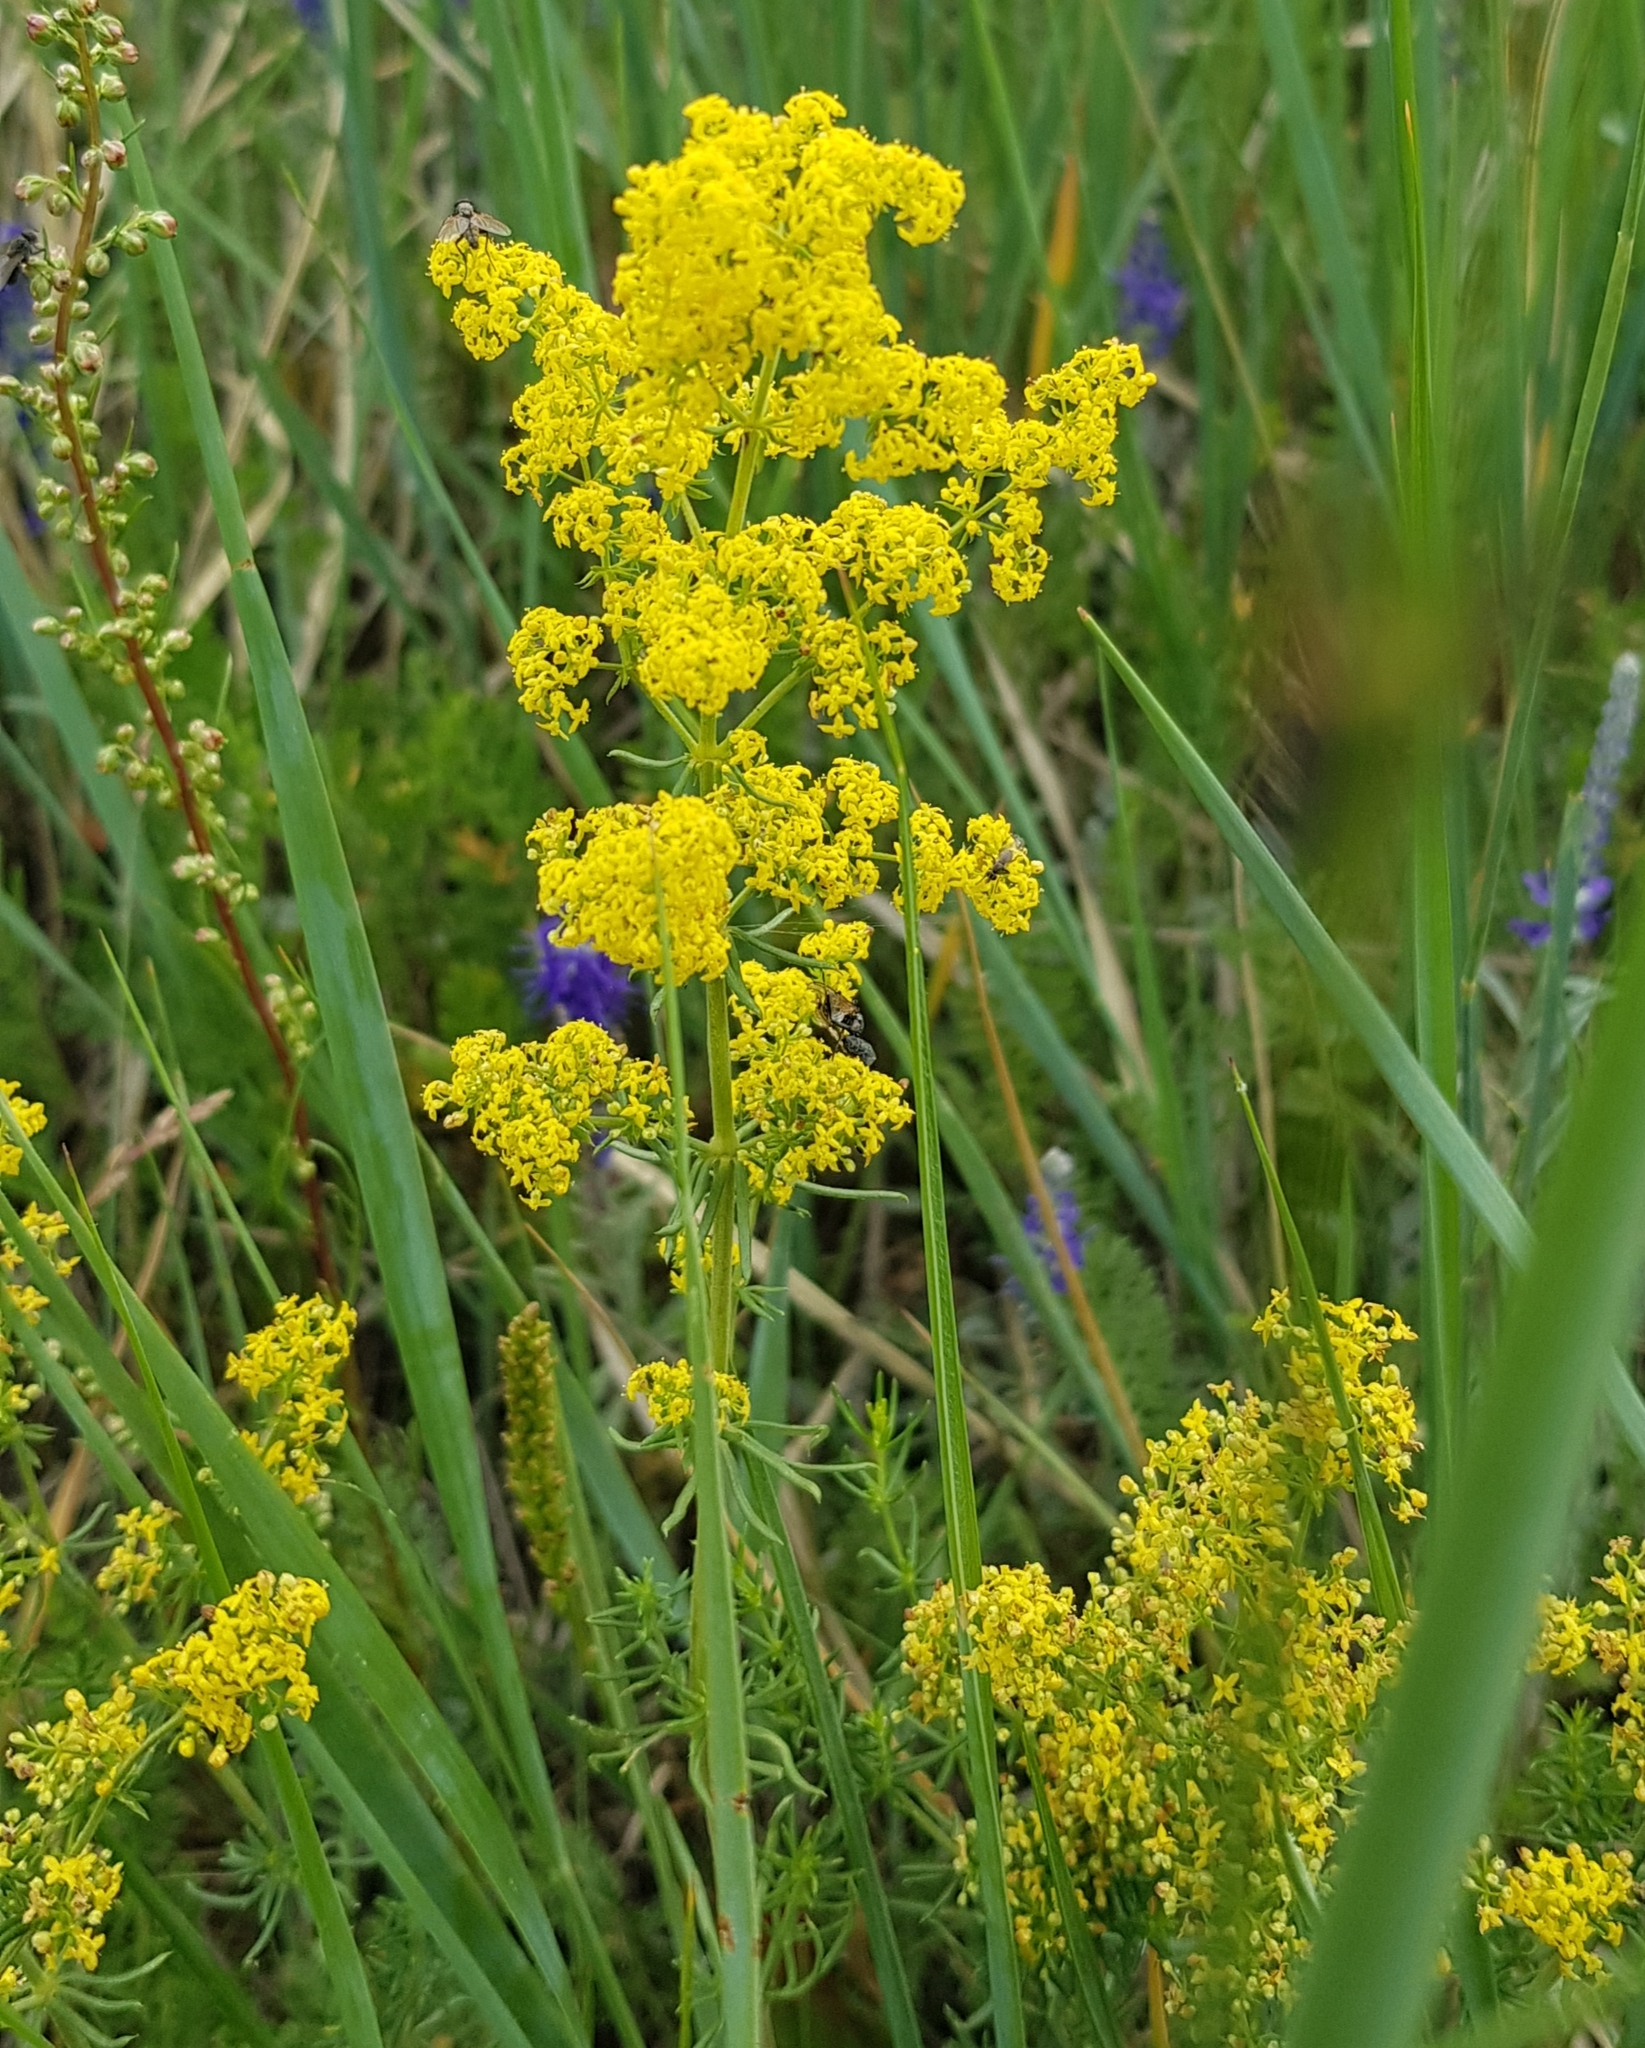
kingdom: Plantae
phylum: Tracheophyta
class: Magnoliopsida
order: Gentianales
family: Rubiaceae
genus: Galium
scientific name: Galium verum
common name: Lady's bedstraw
